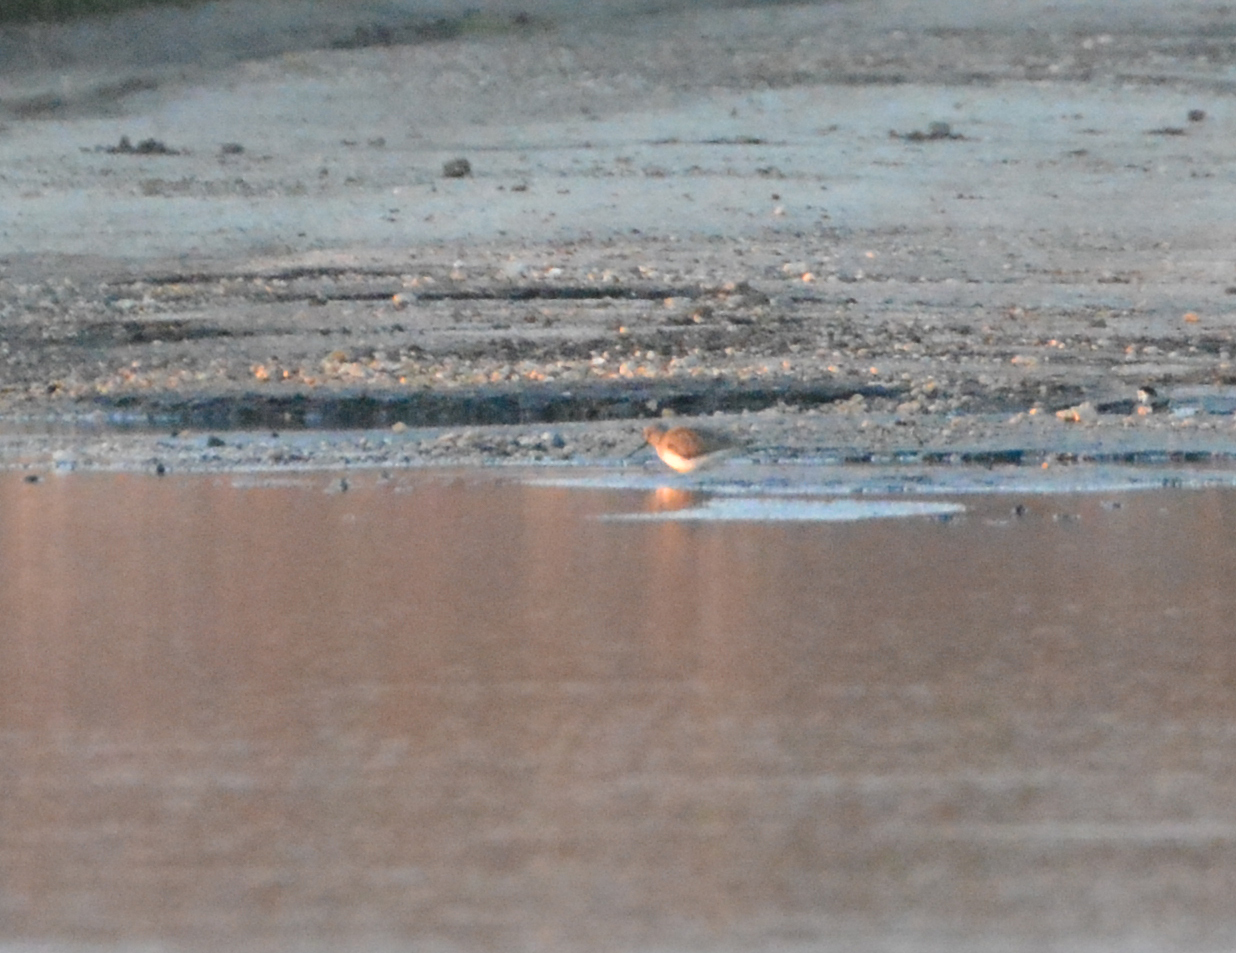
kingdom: Animalia
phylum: Chordata
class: Aves
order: Charadriiformes
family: Scolopacidae
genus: Xenus
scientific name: Xenus cinereus
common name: Terek sandpiper
